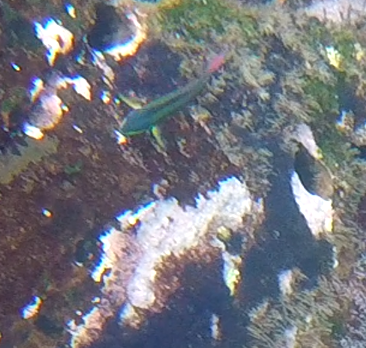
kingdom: Animalia
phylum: Chordata
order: Perciformes
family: Labridae
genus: Thalassoma
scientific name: Thalassoma lucasanum
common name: Cortez rainbow wrasse
